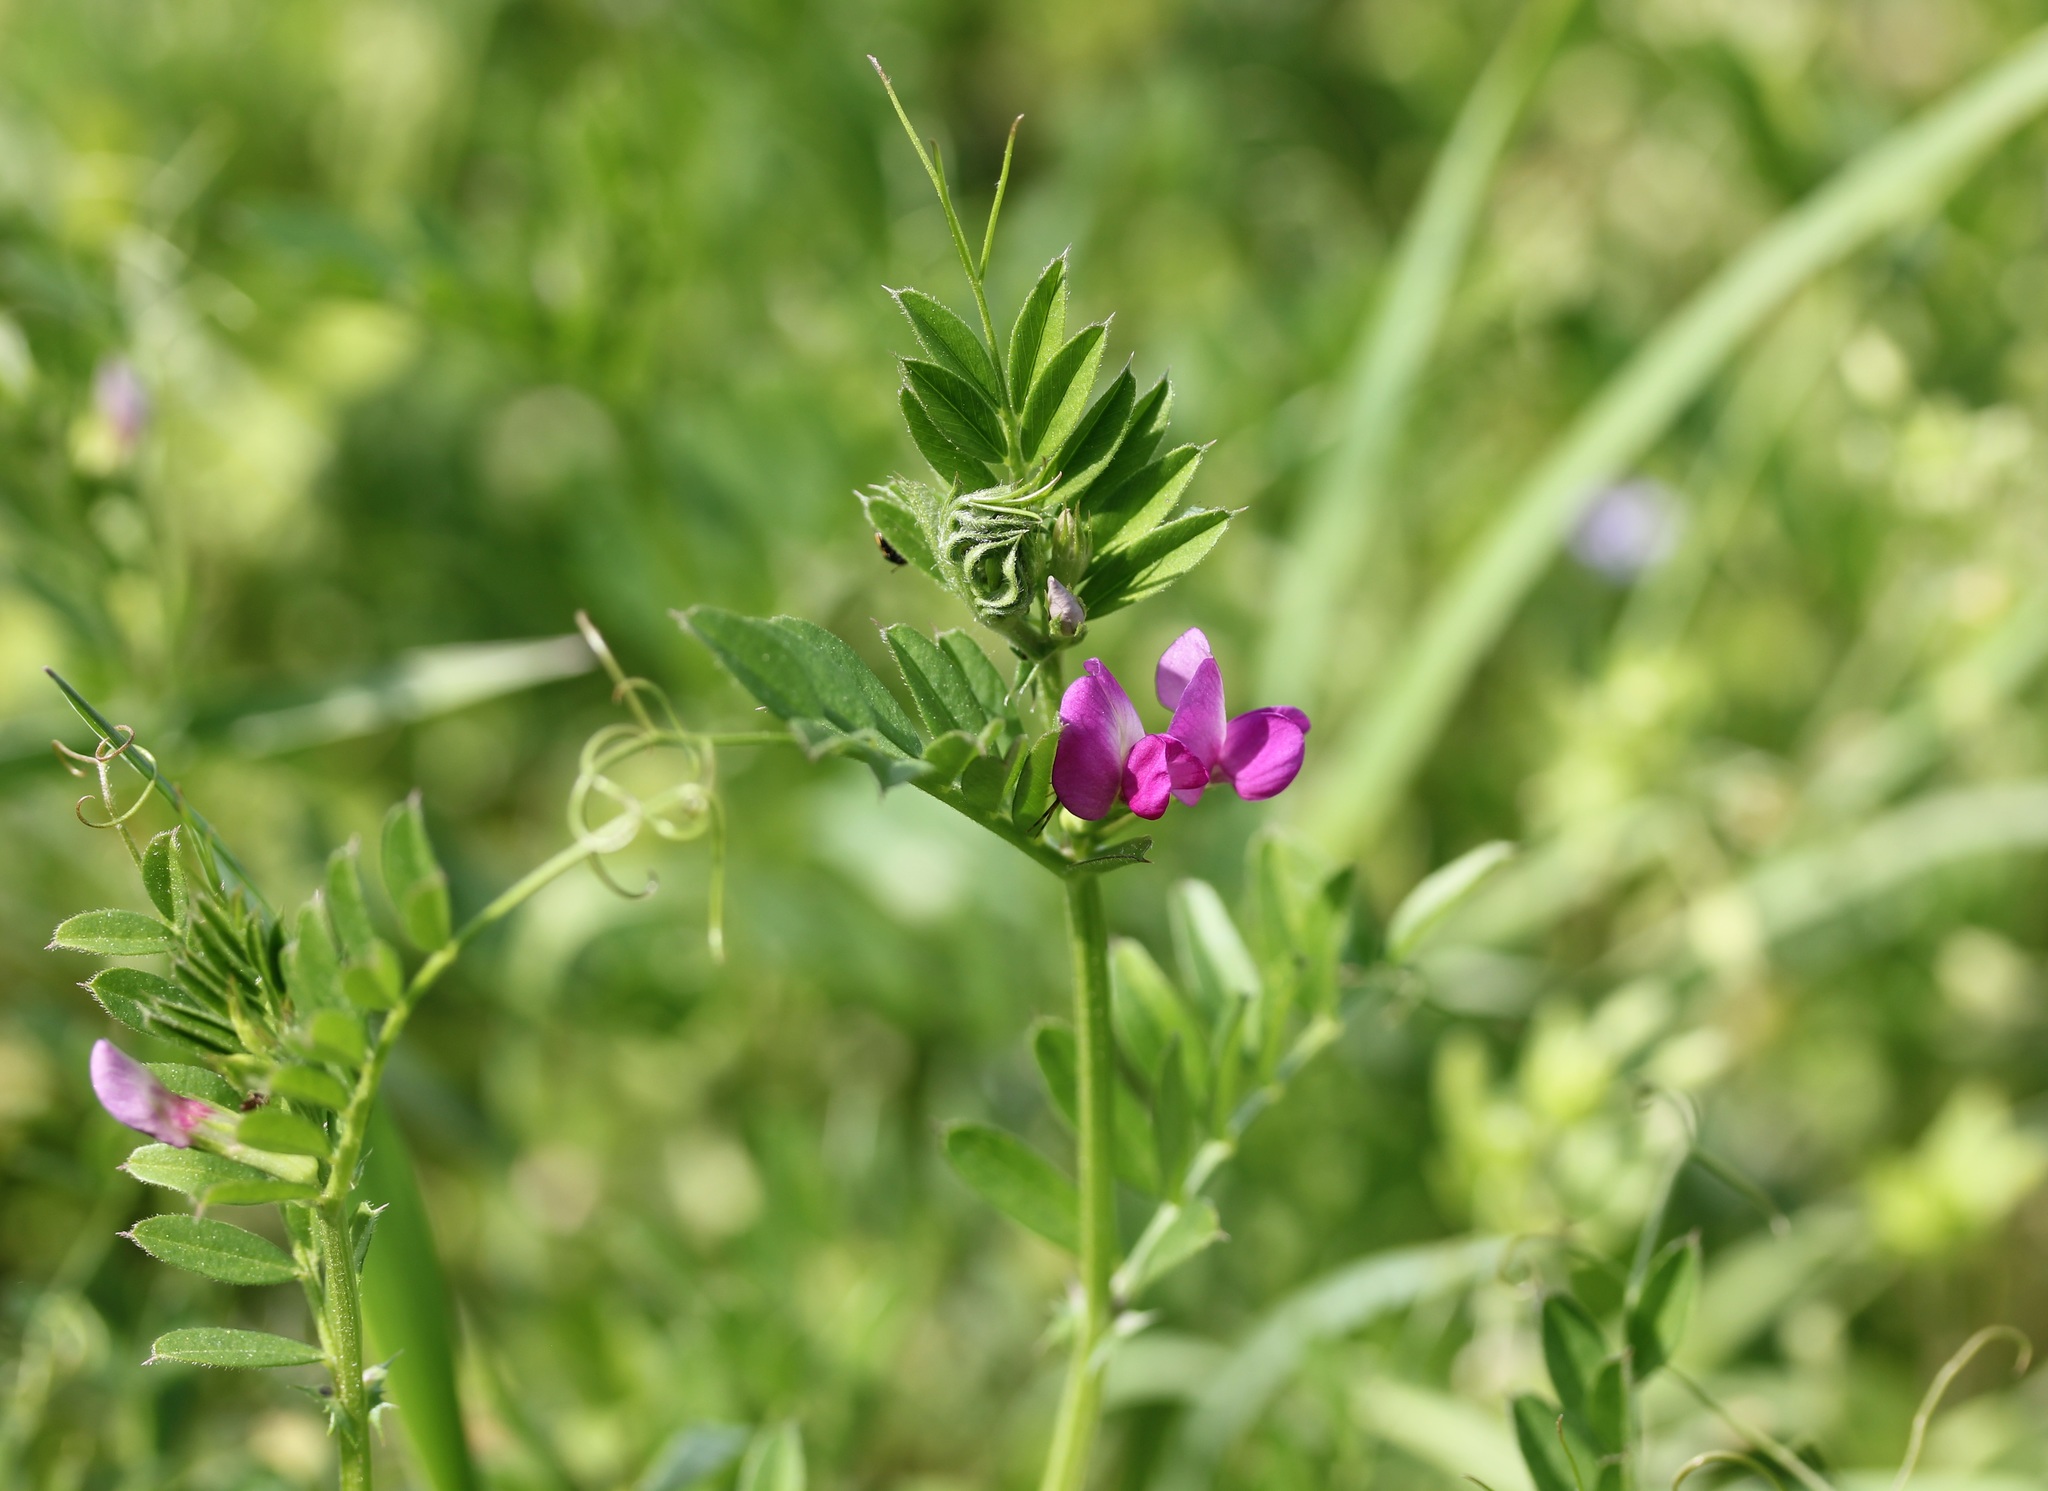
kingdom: Plantae
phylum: Tracheophyta
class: Magnoliopsida
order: Fabales
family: Fabaceae
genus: Vicia
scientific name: Vicia sativa
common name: Garden vetch
